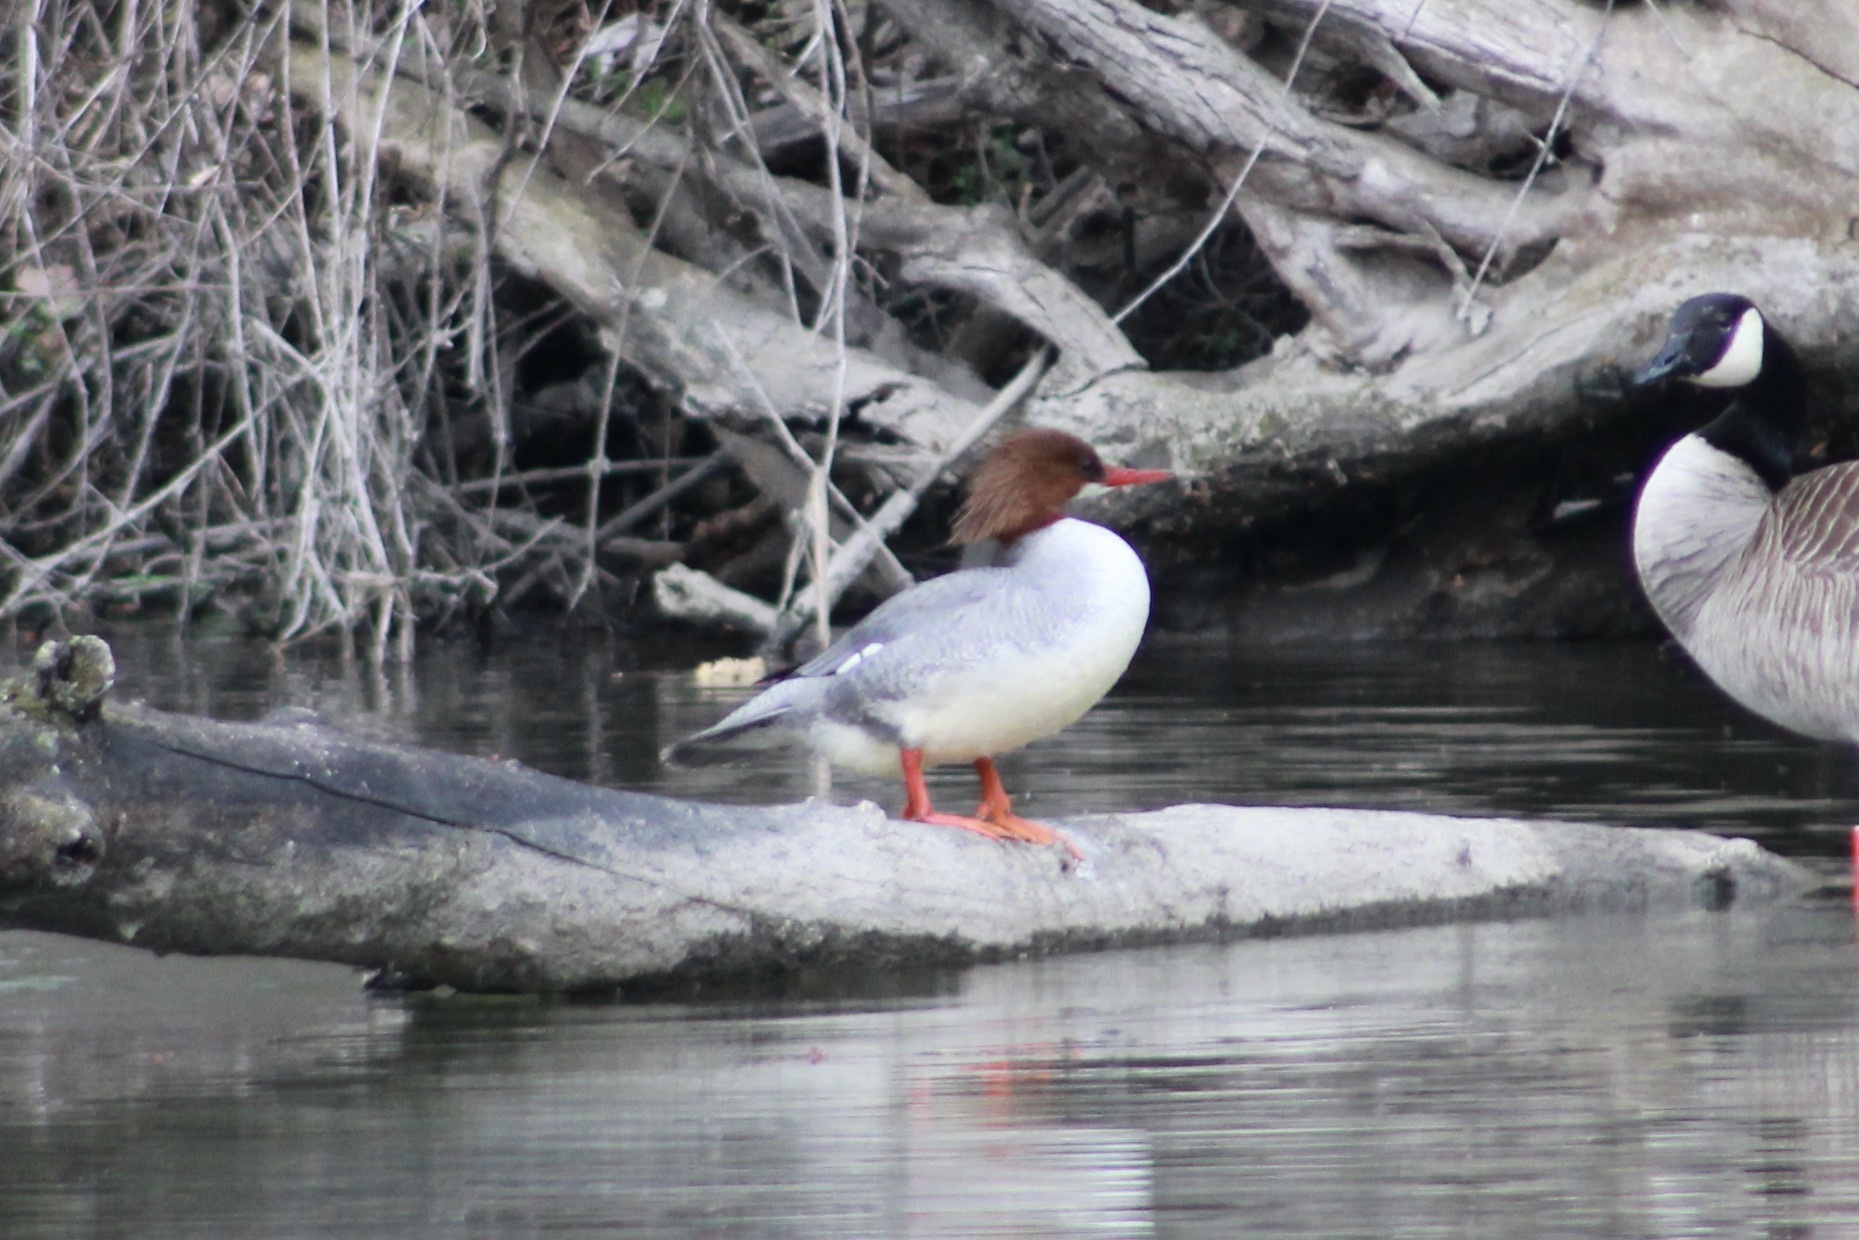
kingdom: Animalia
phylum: Chordata
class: Aves
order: Anseriformes
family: Anatidae
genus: Mergus
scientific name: Mergus merganser
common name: Common merganser
